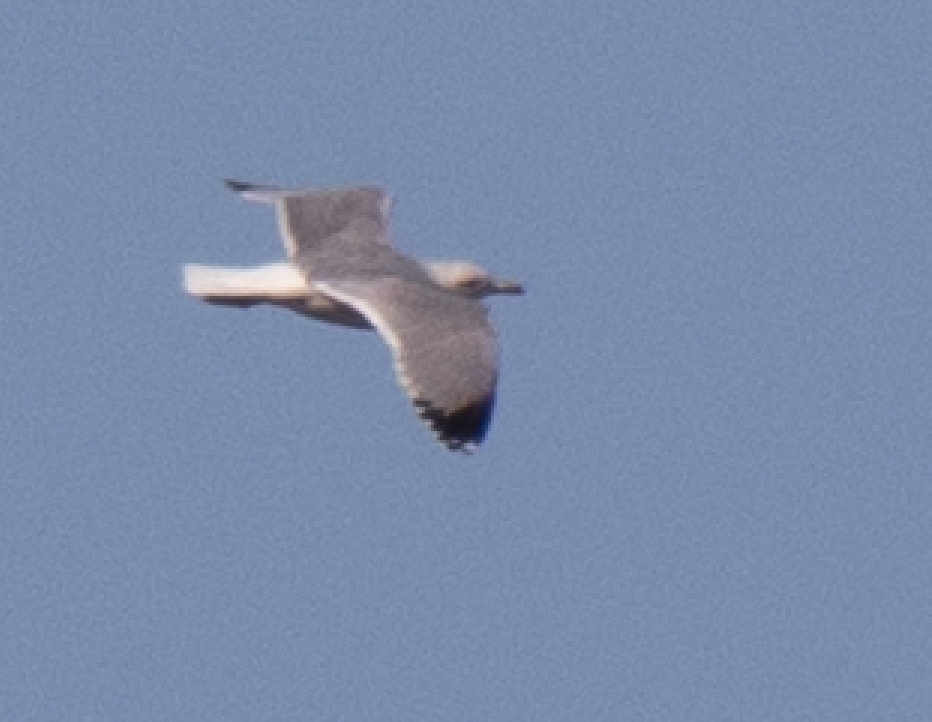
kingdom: Animalia
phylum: Chordata
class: Aves
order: Charadriiformes
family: Laridae
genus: Larus
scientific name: Larus michahellis
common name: Yellow-legged gull
